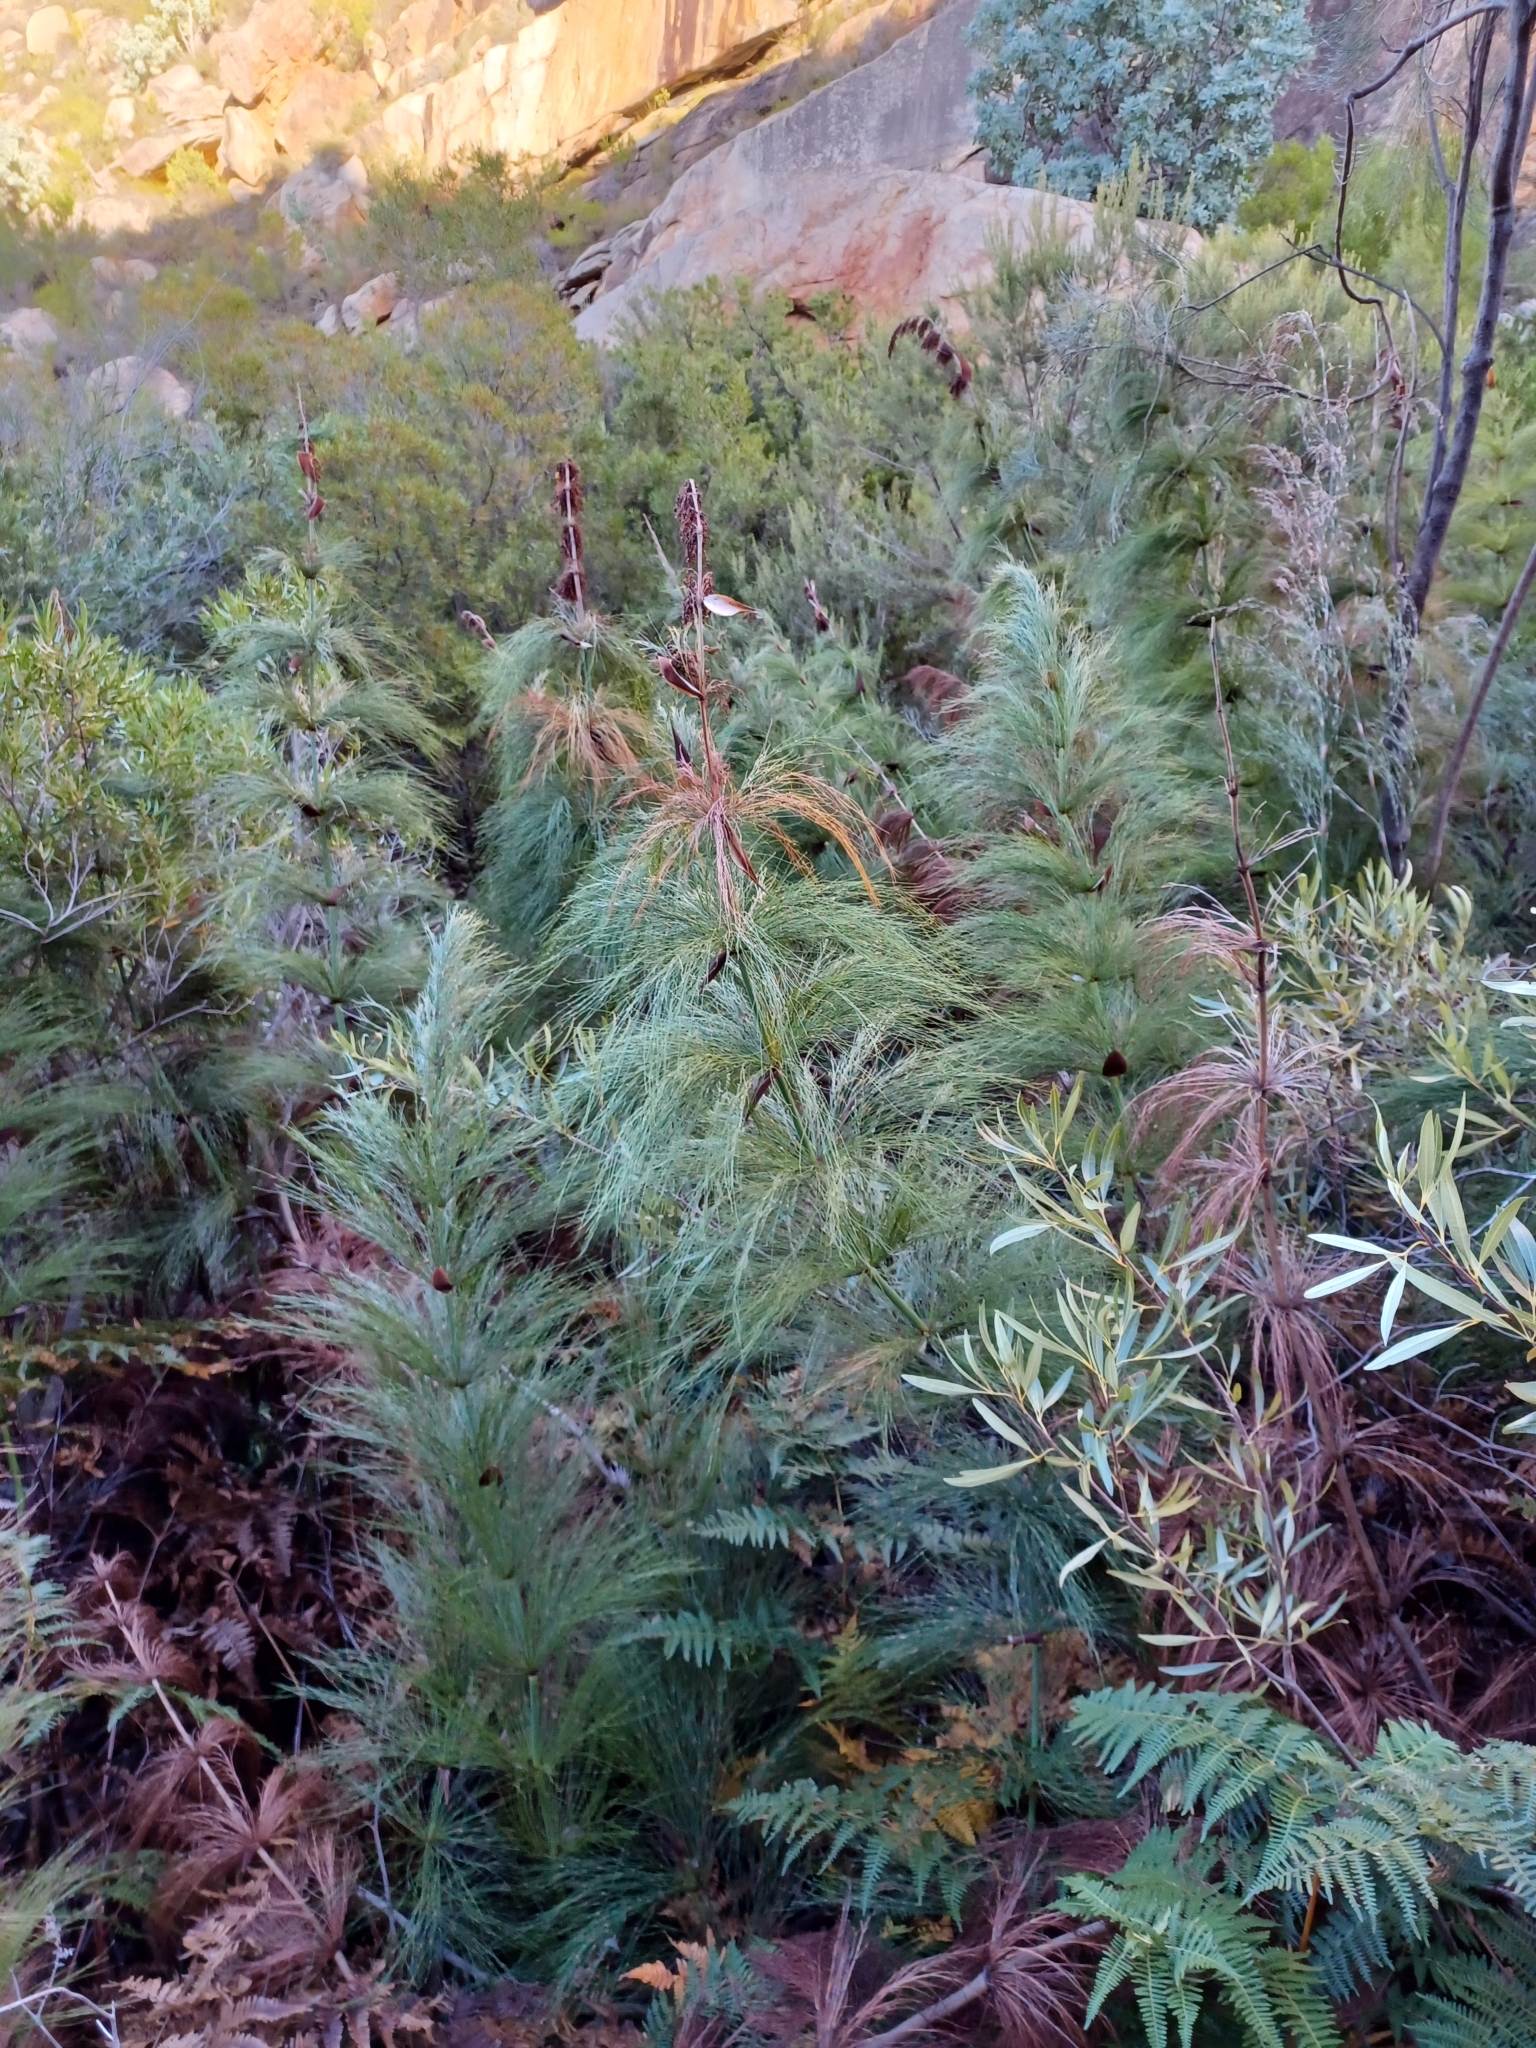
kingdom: Plantae
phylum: Tracheophyta
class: Liliopsida
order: Poales
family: Restionaceae
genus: Elegia
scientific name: Elegia capensis
